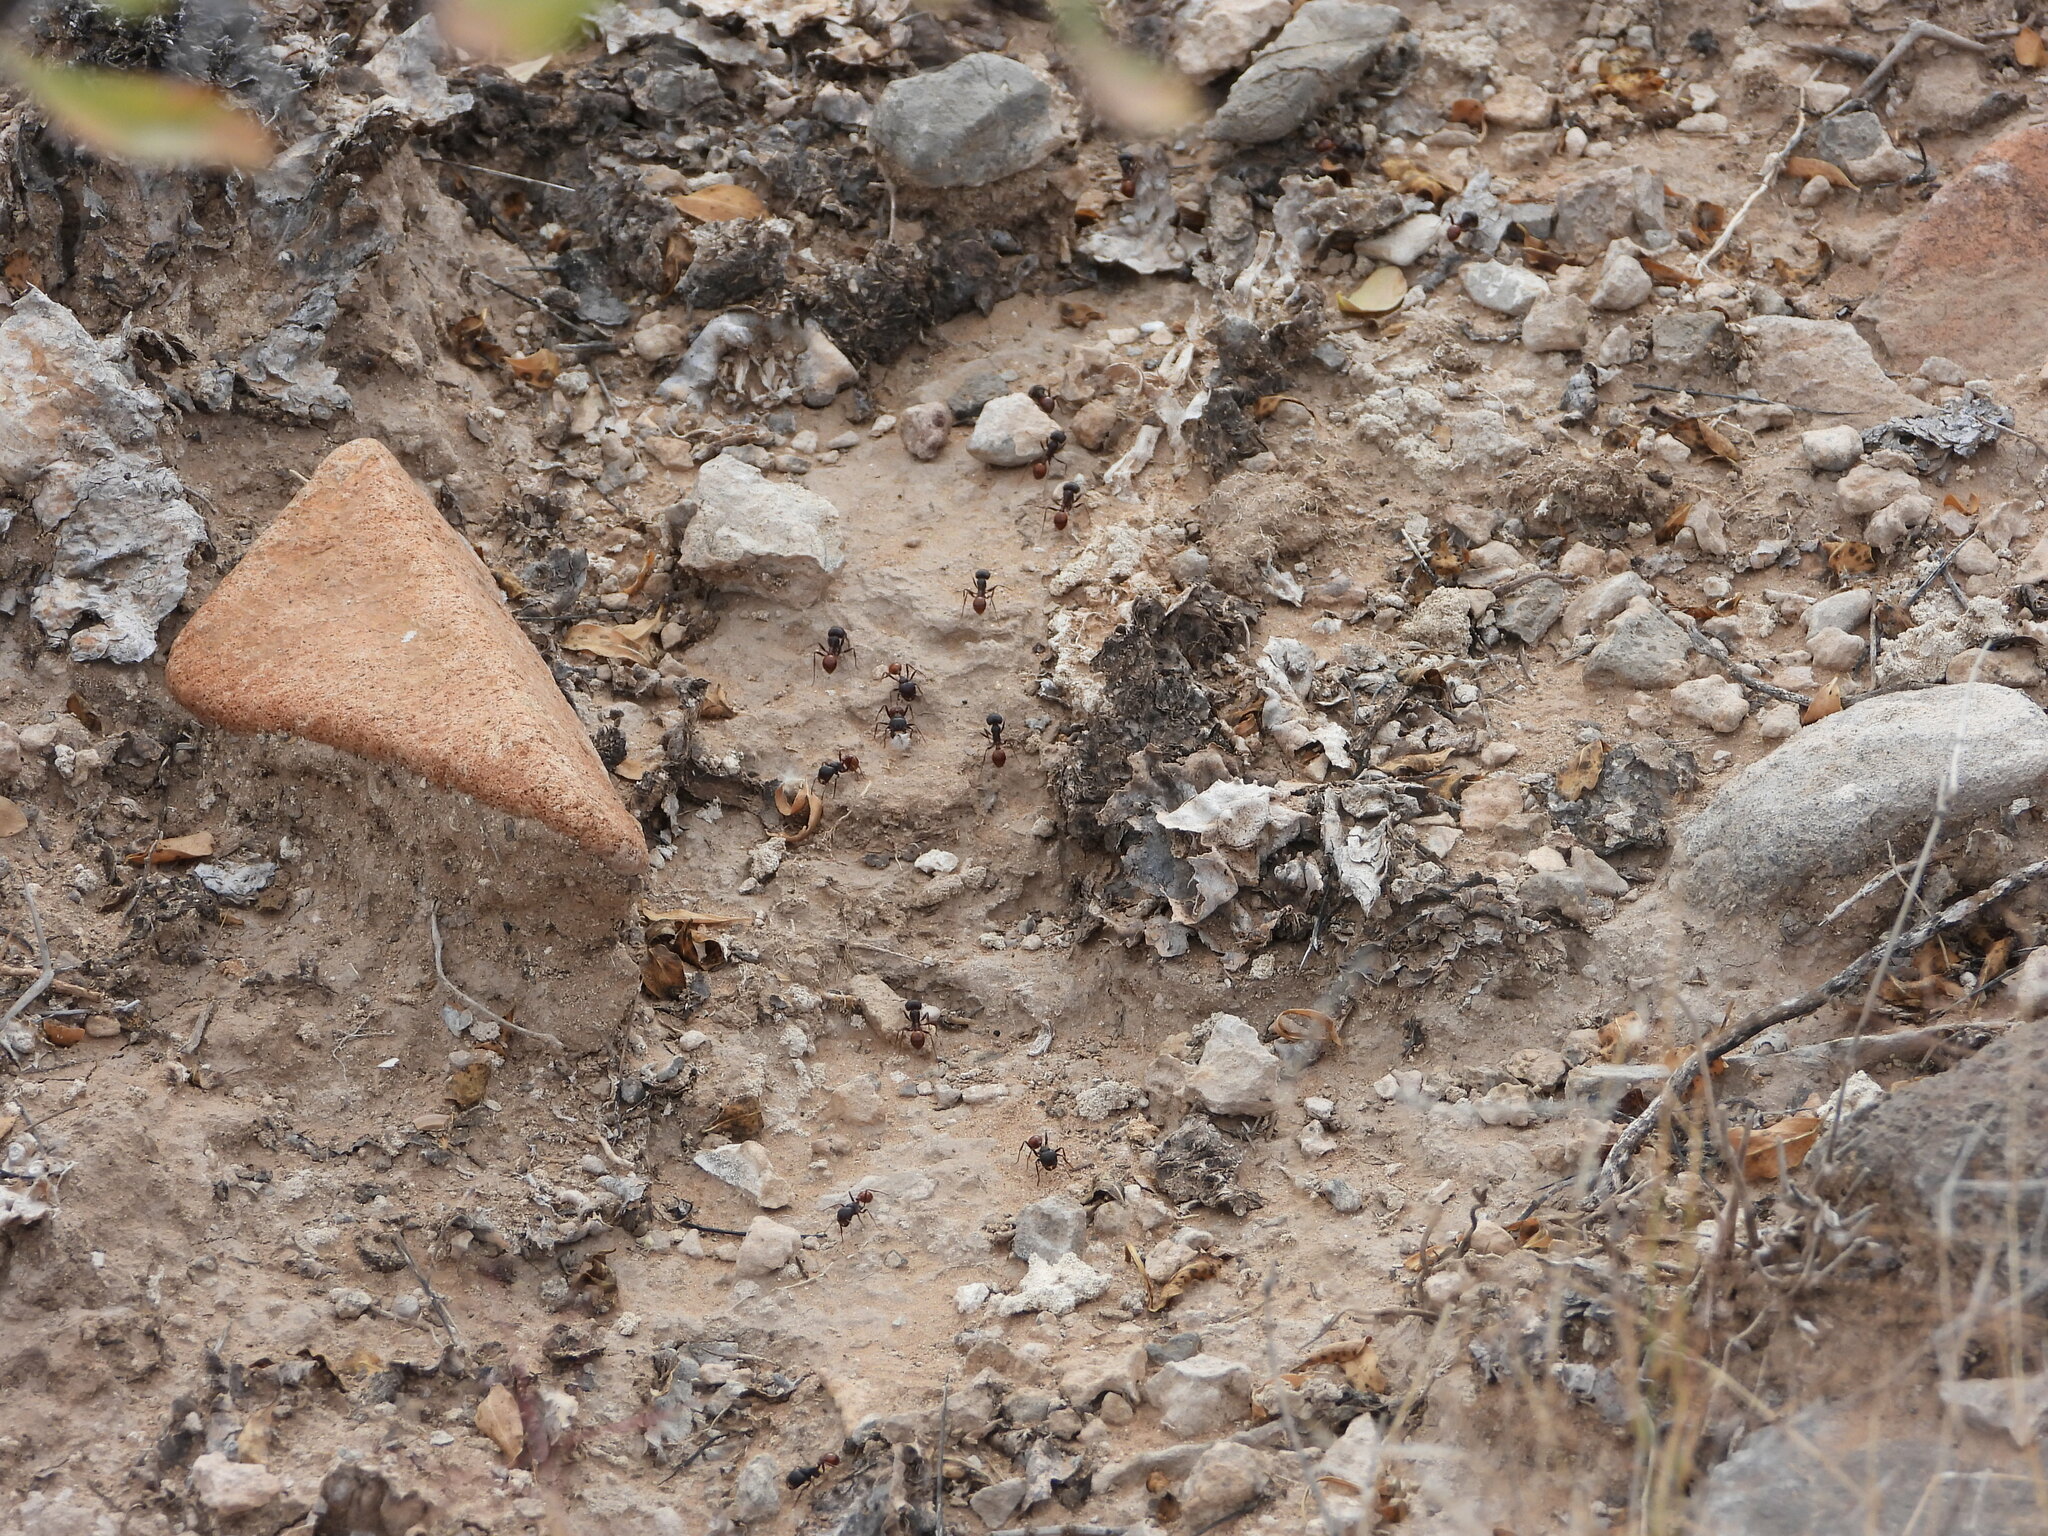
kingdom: Animalia
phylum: Arthropoda
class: Insecta
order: Hymenoptera
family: Formicidae
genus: Pogonomyrmex
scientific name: Pogonomyrmex rugosus
